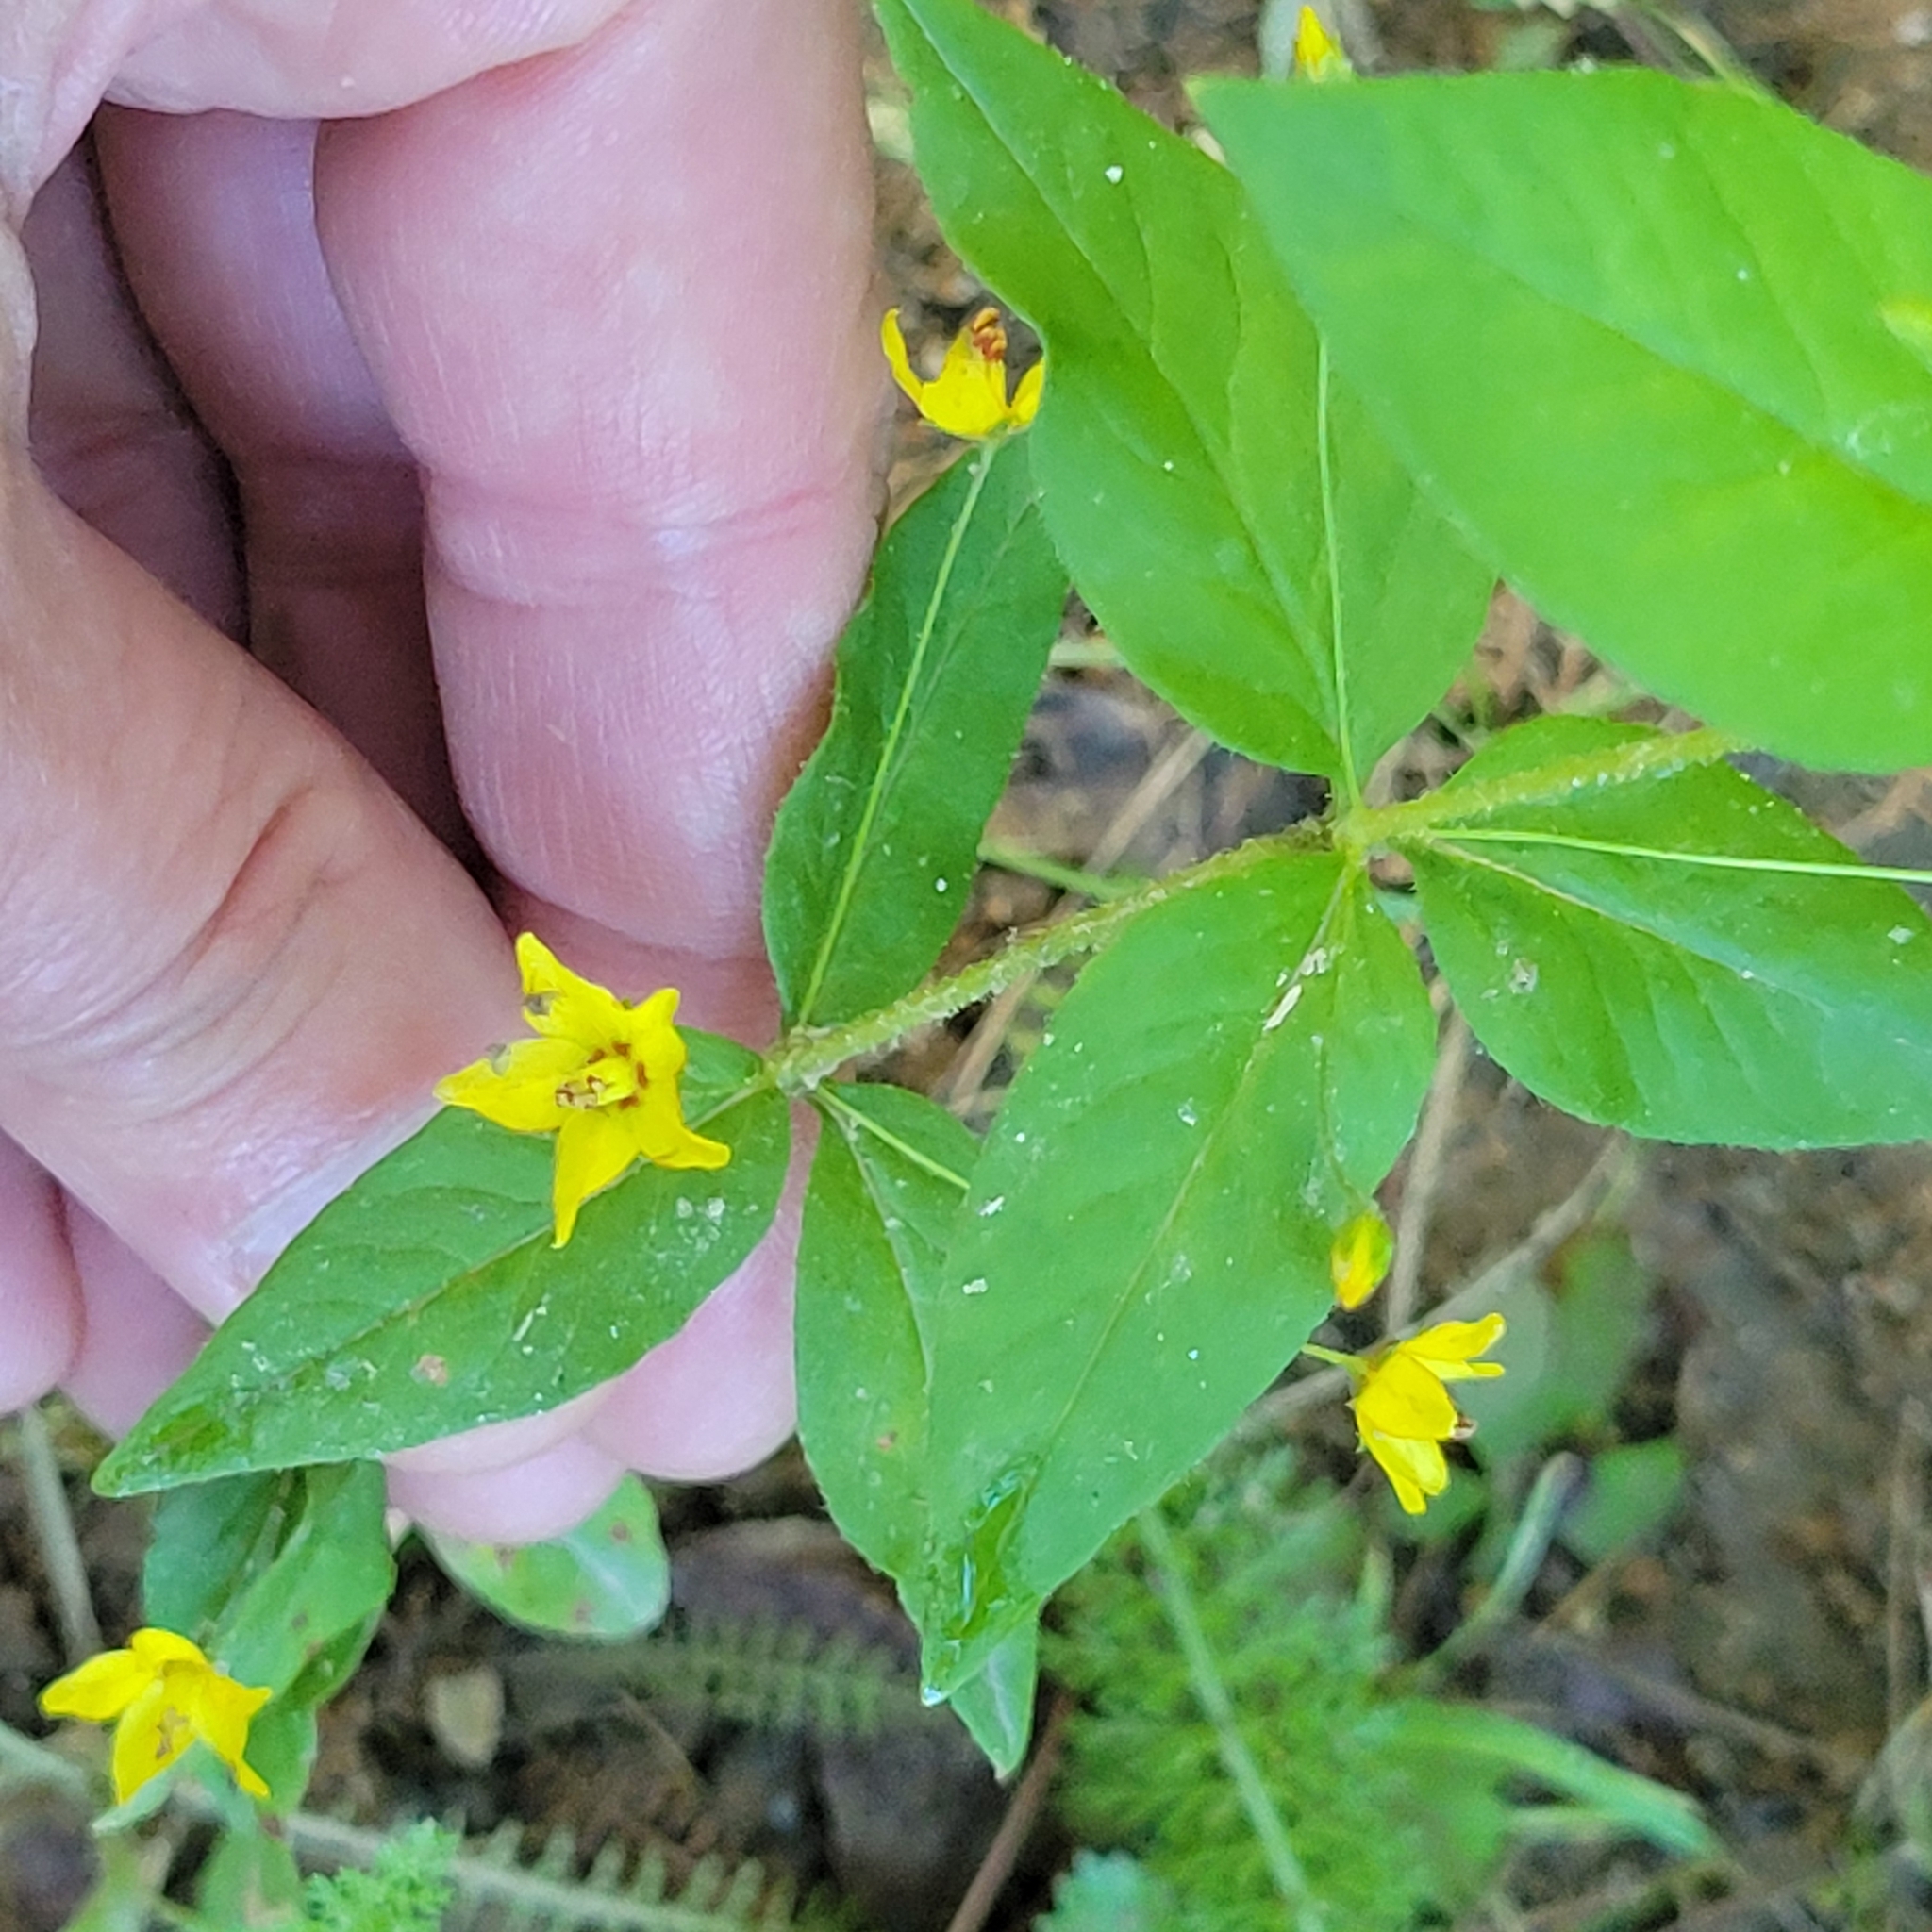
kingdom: Plantae
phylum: Tracheophyta
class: Magnoliopsida
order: Ericales
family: Primulaceae
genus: Lysimachia
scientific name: Lysimachia quadrifolia
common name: Whorled loosestrife
